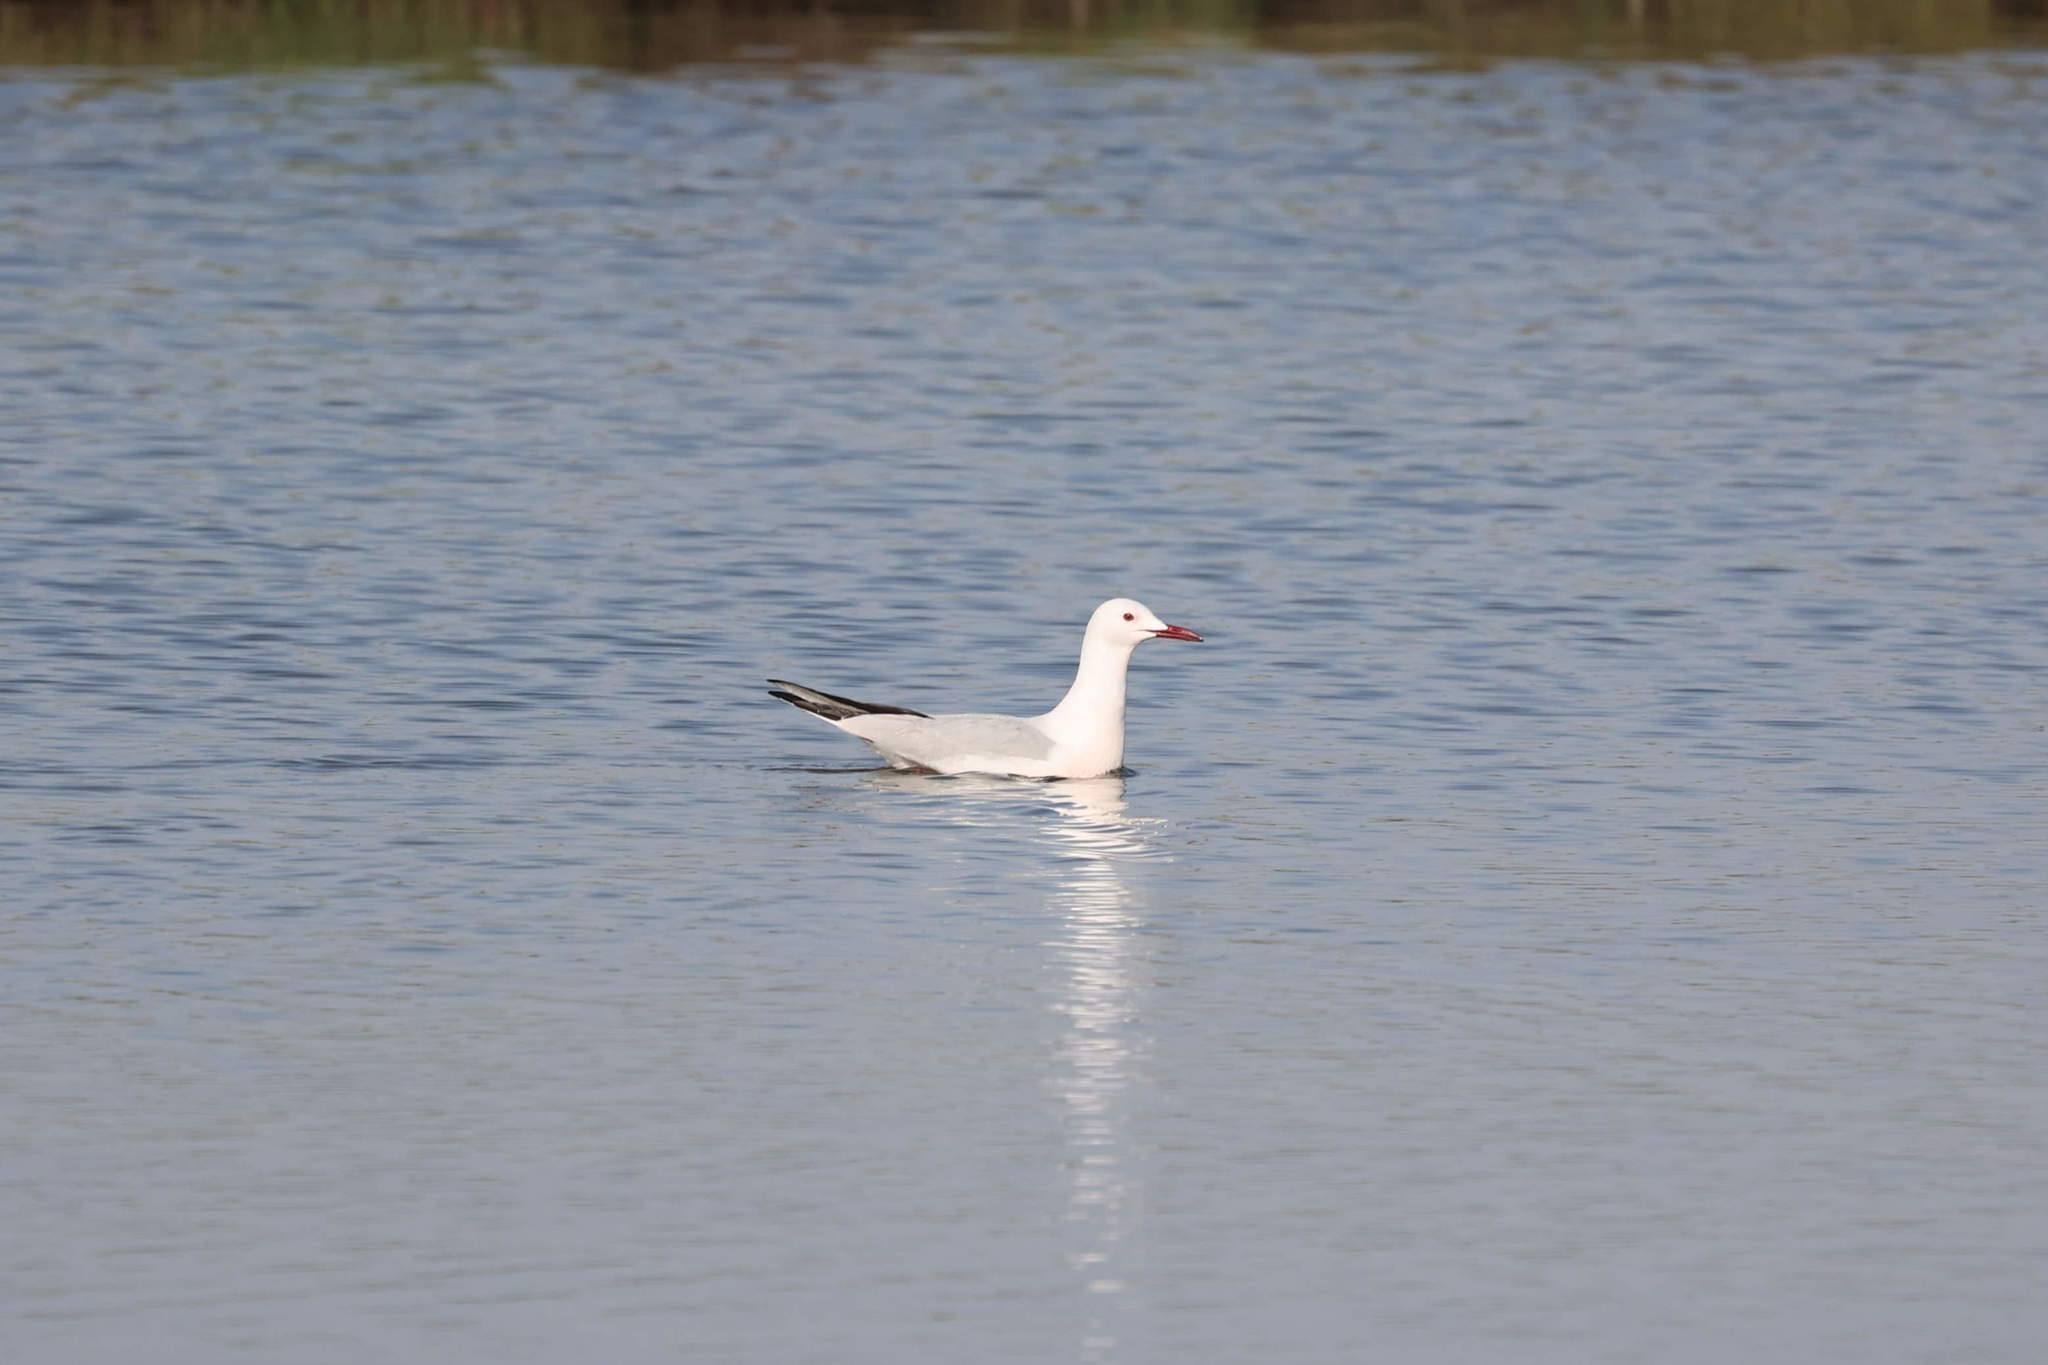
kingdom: Animalia
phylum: Chordata
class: Aves
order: Charadriiformes
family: Laridae
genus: Chroicocephalus
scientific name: Chroicocephalus genei
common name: Slender-billed gull
